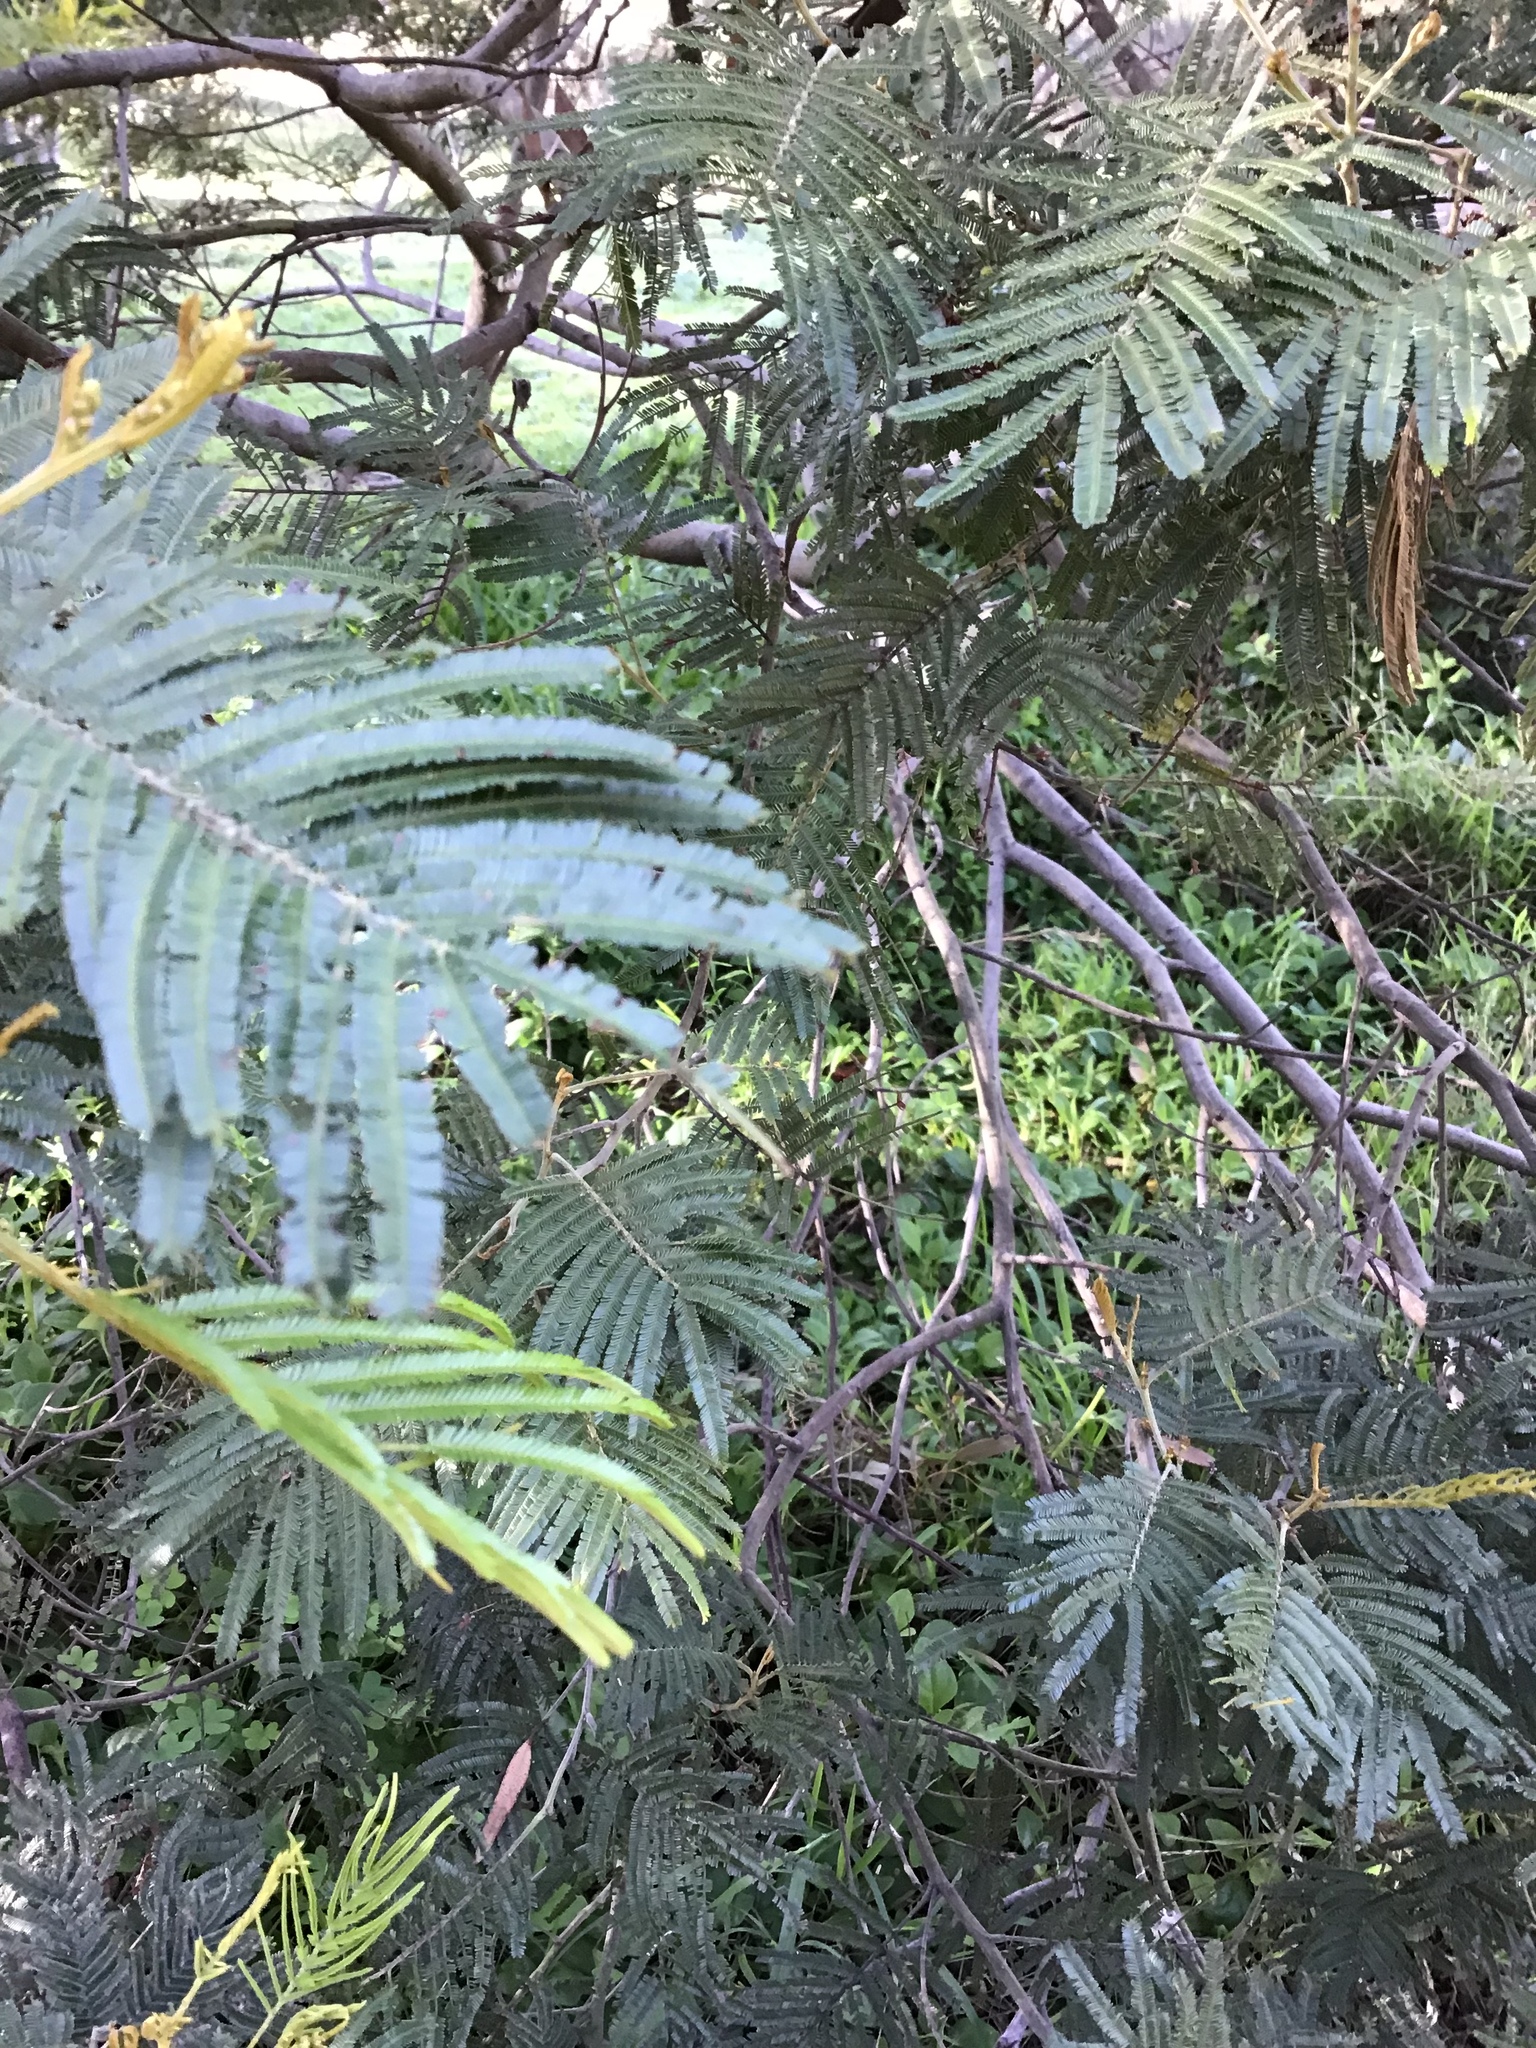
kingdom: Plantae
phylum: Tracheophyta
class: Magnoliopsida
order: Fabales
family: Fabaceae
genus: Paraserianthes
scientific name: Paraserianthes lophantha
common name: Plume albizia
